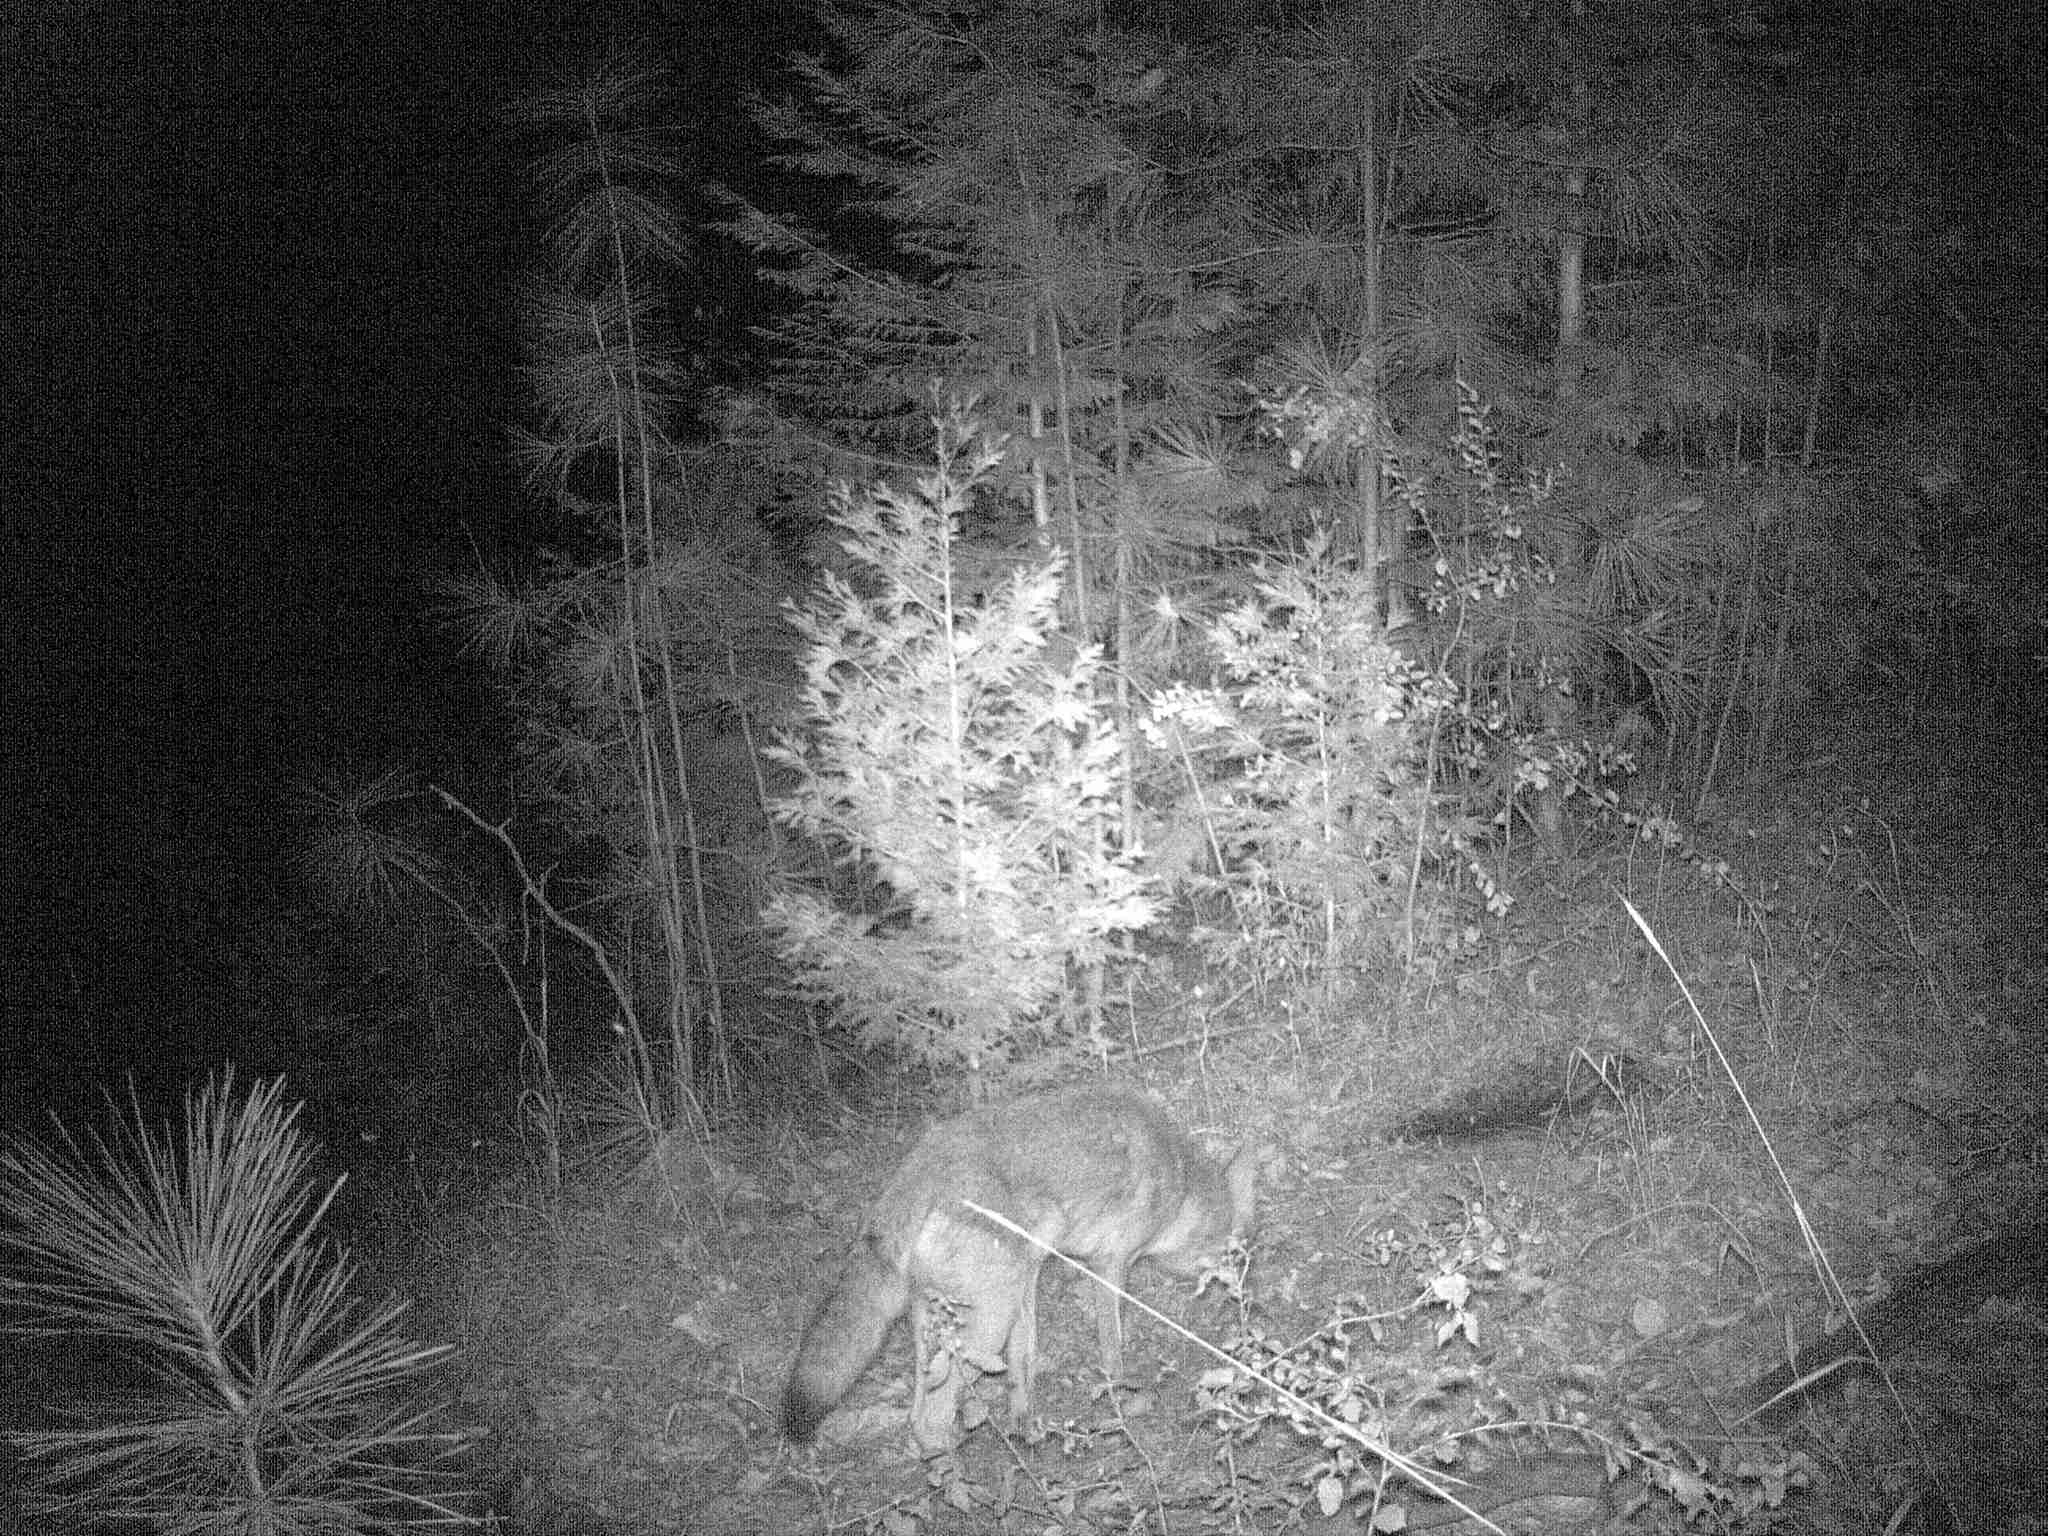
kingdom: Animalia
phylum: Chordata
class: Mammalia
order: Carnivora
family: Canidae
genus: Canis
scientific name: Canis latrans
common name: Coyote
